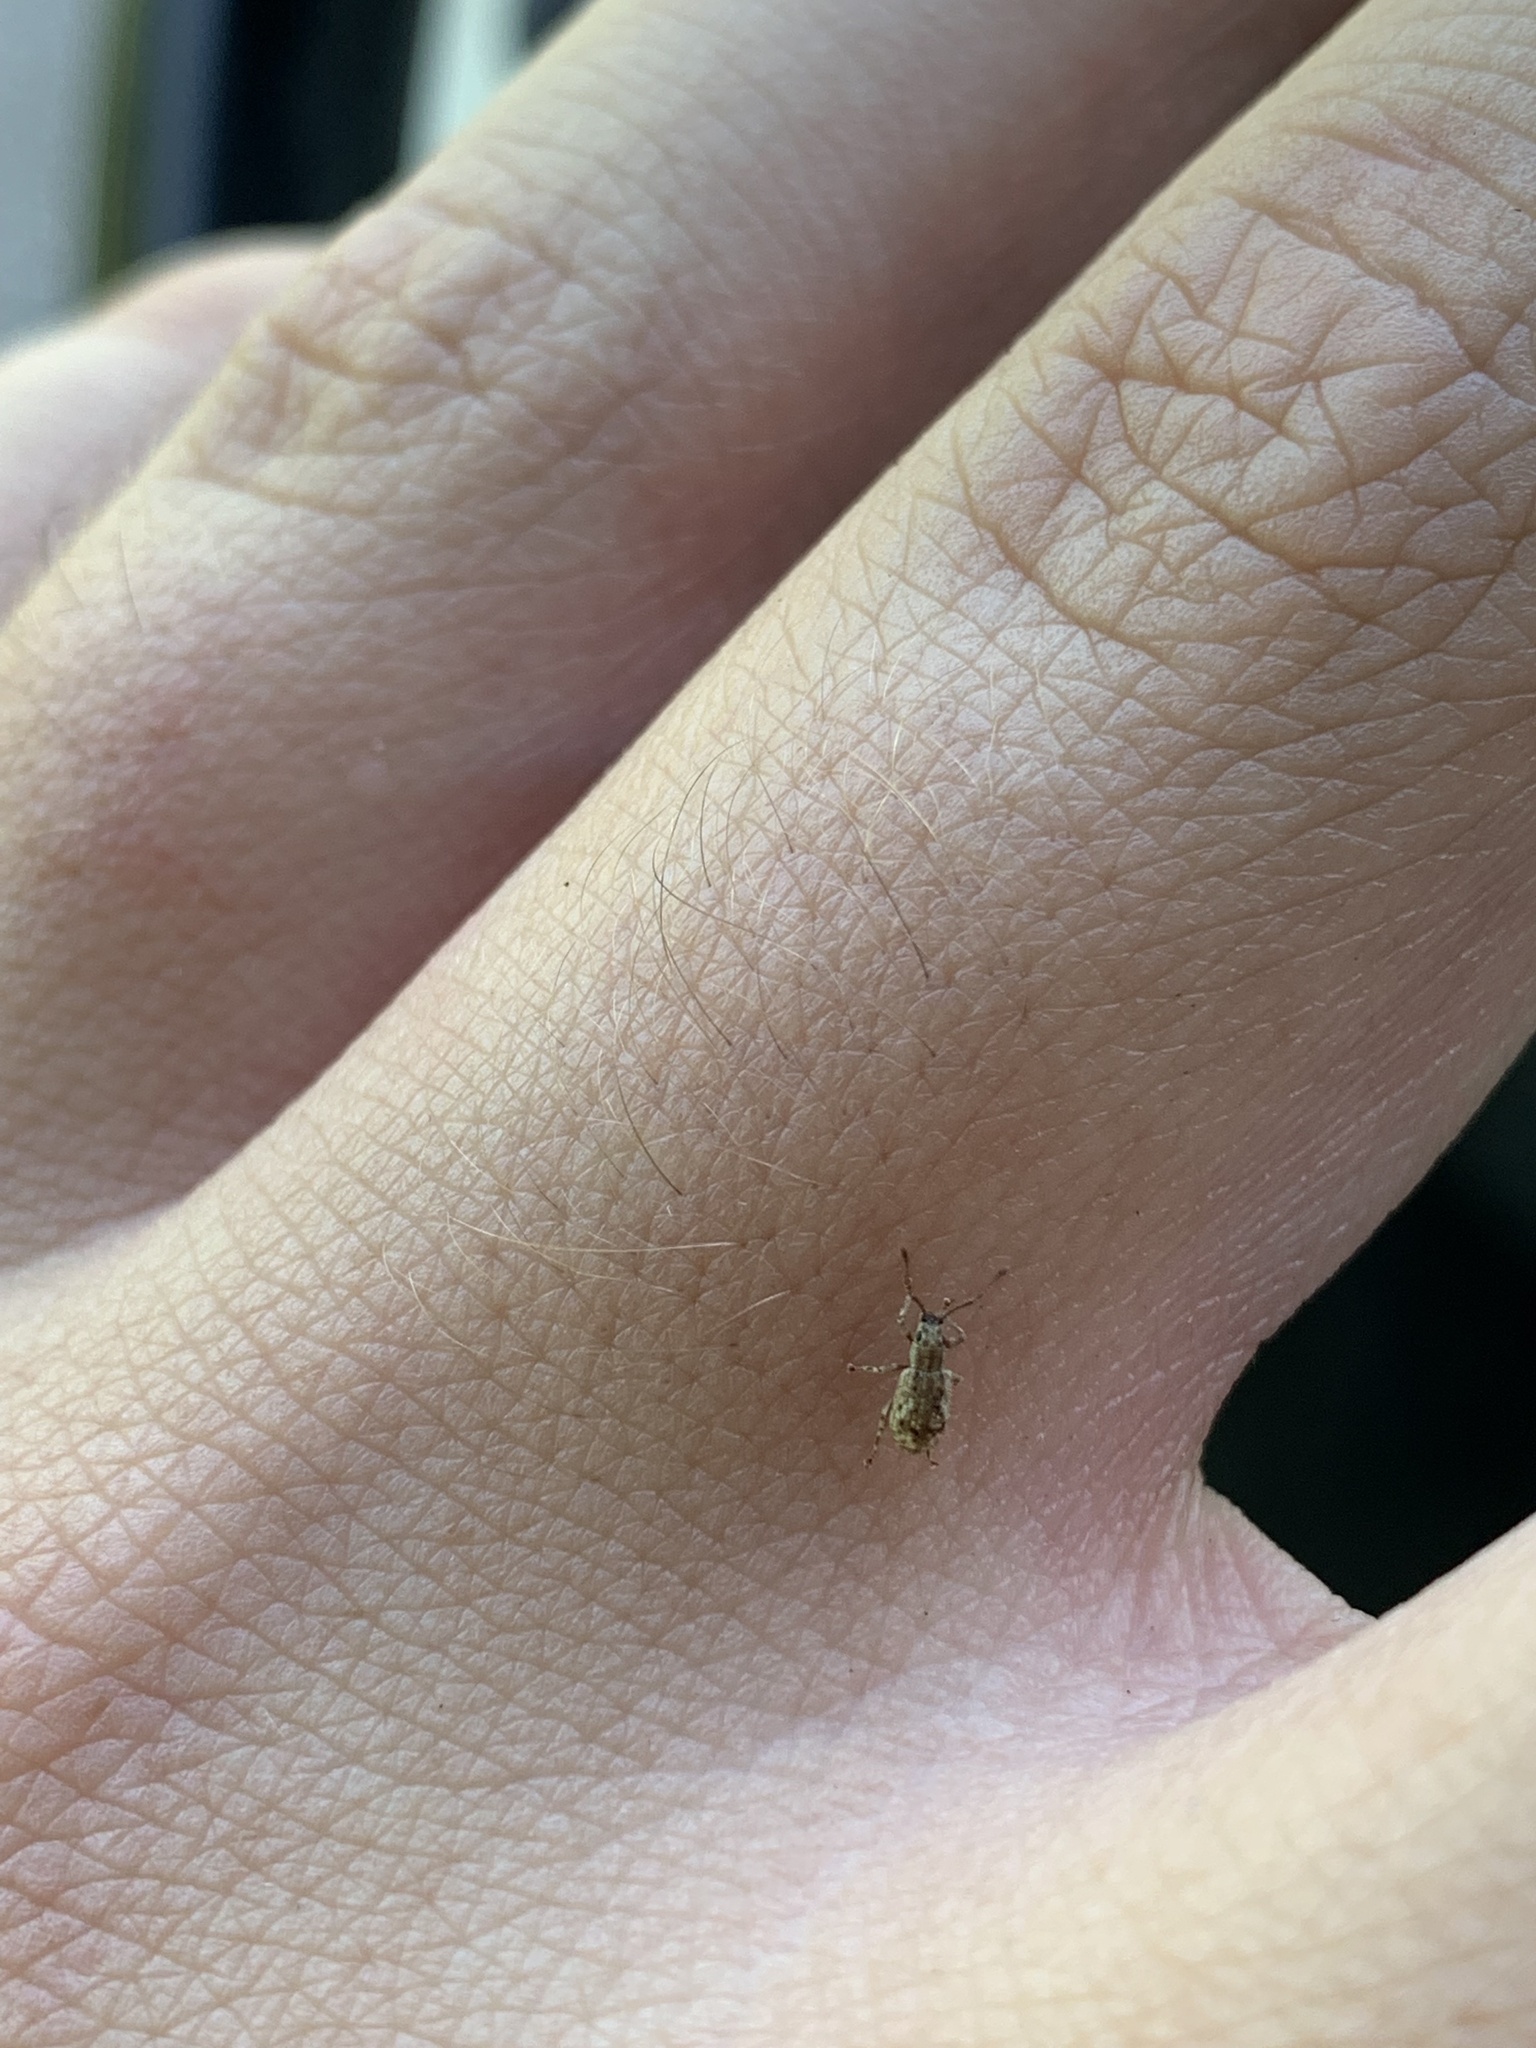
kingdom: Animalia
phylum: Arthropoda
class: Insecta
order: Coleoptera
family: Curculionidae
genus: Pseudoedophrys
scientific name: Pseudoedophrys hilleri
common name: Weevil
